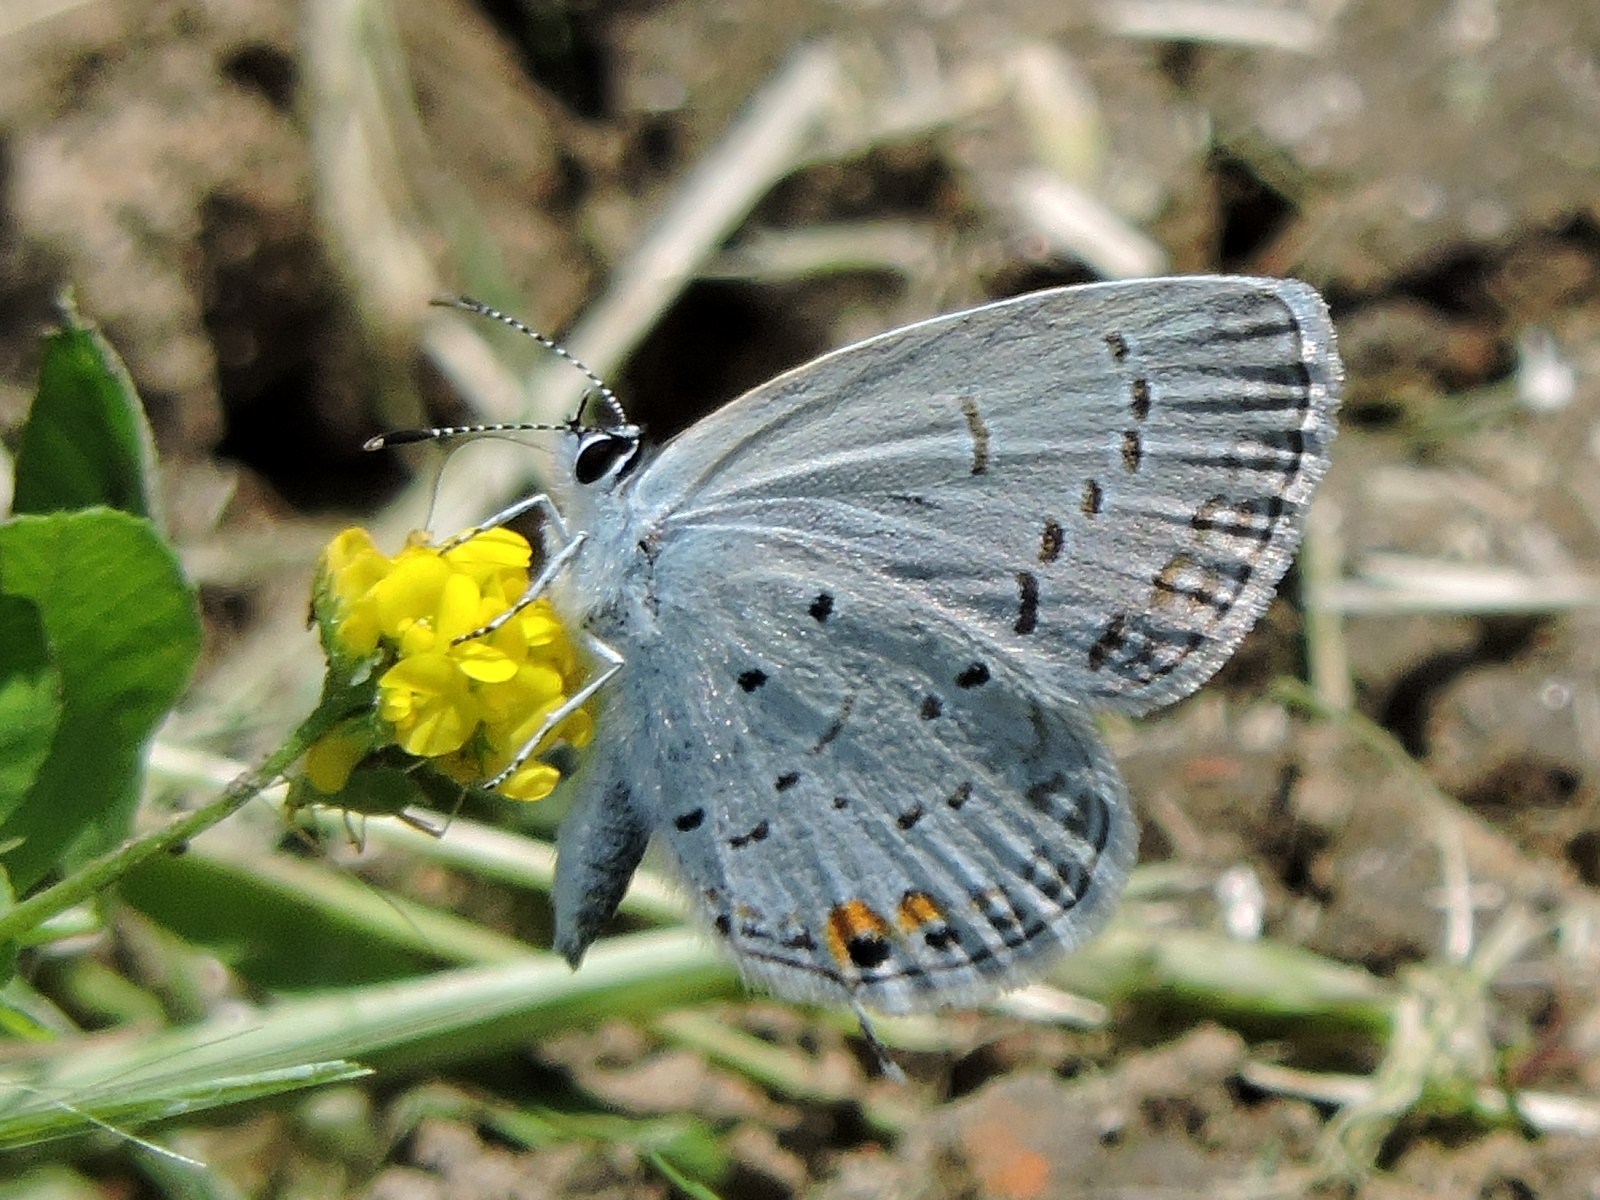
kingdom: Animalia
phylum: Arthropoda
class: Insecta
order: Lepidoptera
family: Lycaenidae
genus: Elkalyce
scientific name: Elkalyce comyntas
